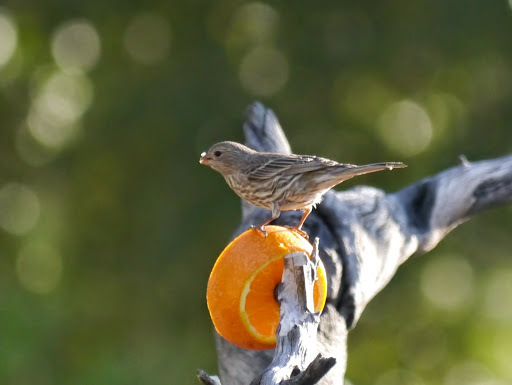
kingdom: Animalia
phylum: Chordata
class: Aves
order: Passeriformes
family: Fringillidae
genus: Haemorhous
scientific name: Haemorhous mexicanus
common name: House finch
